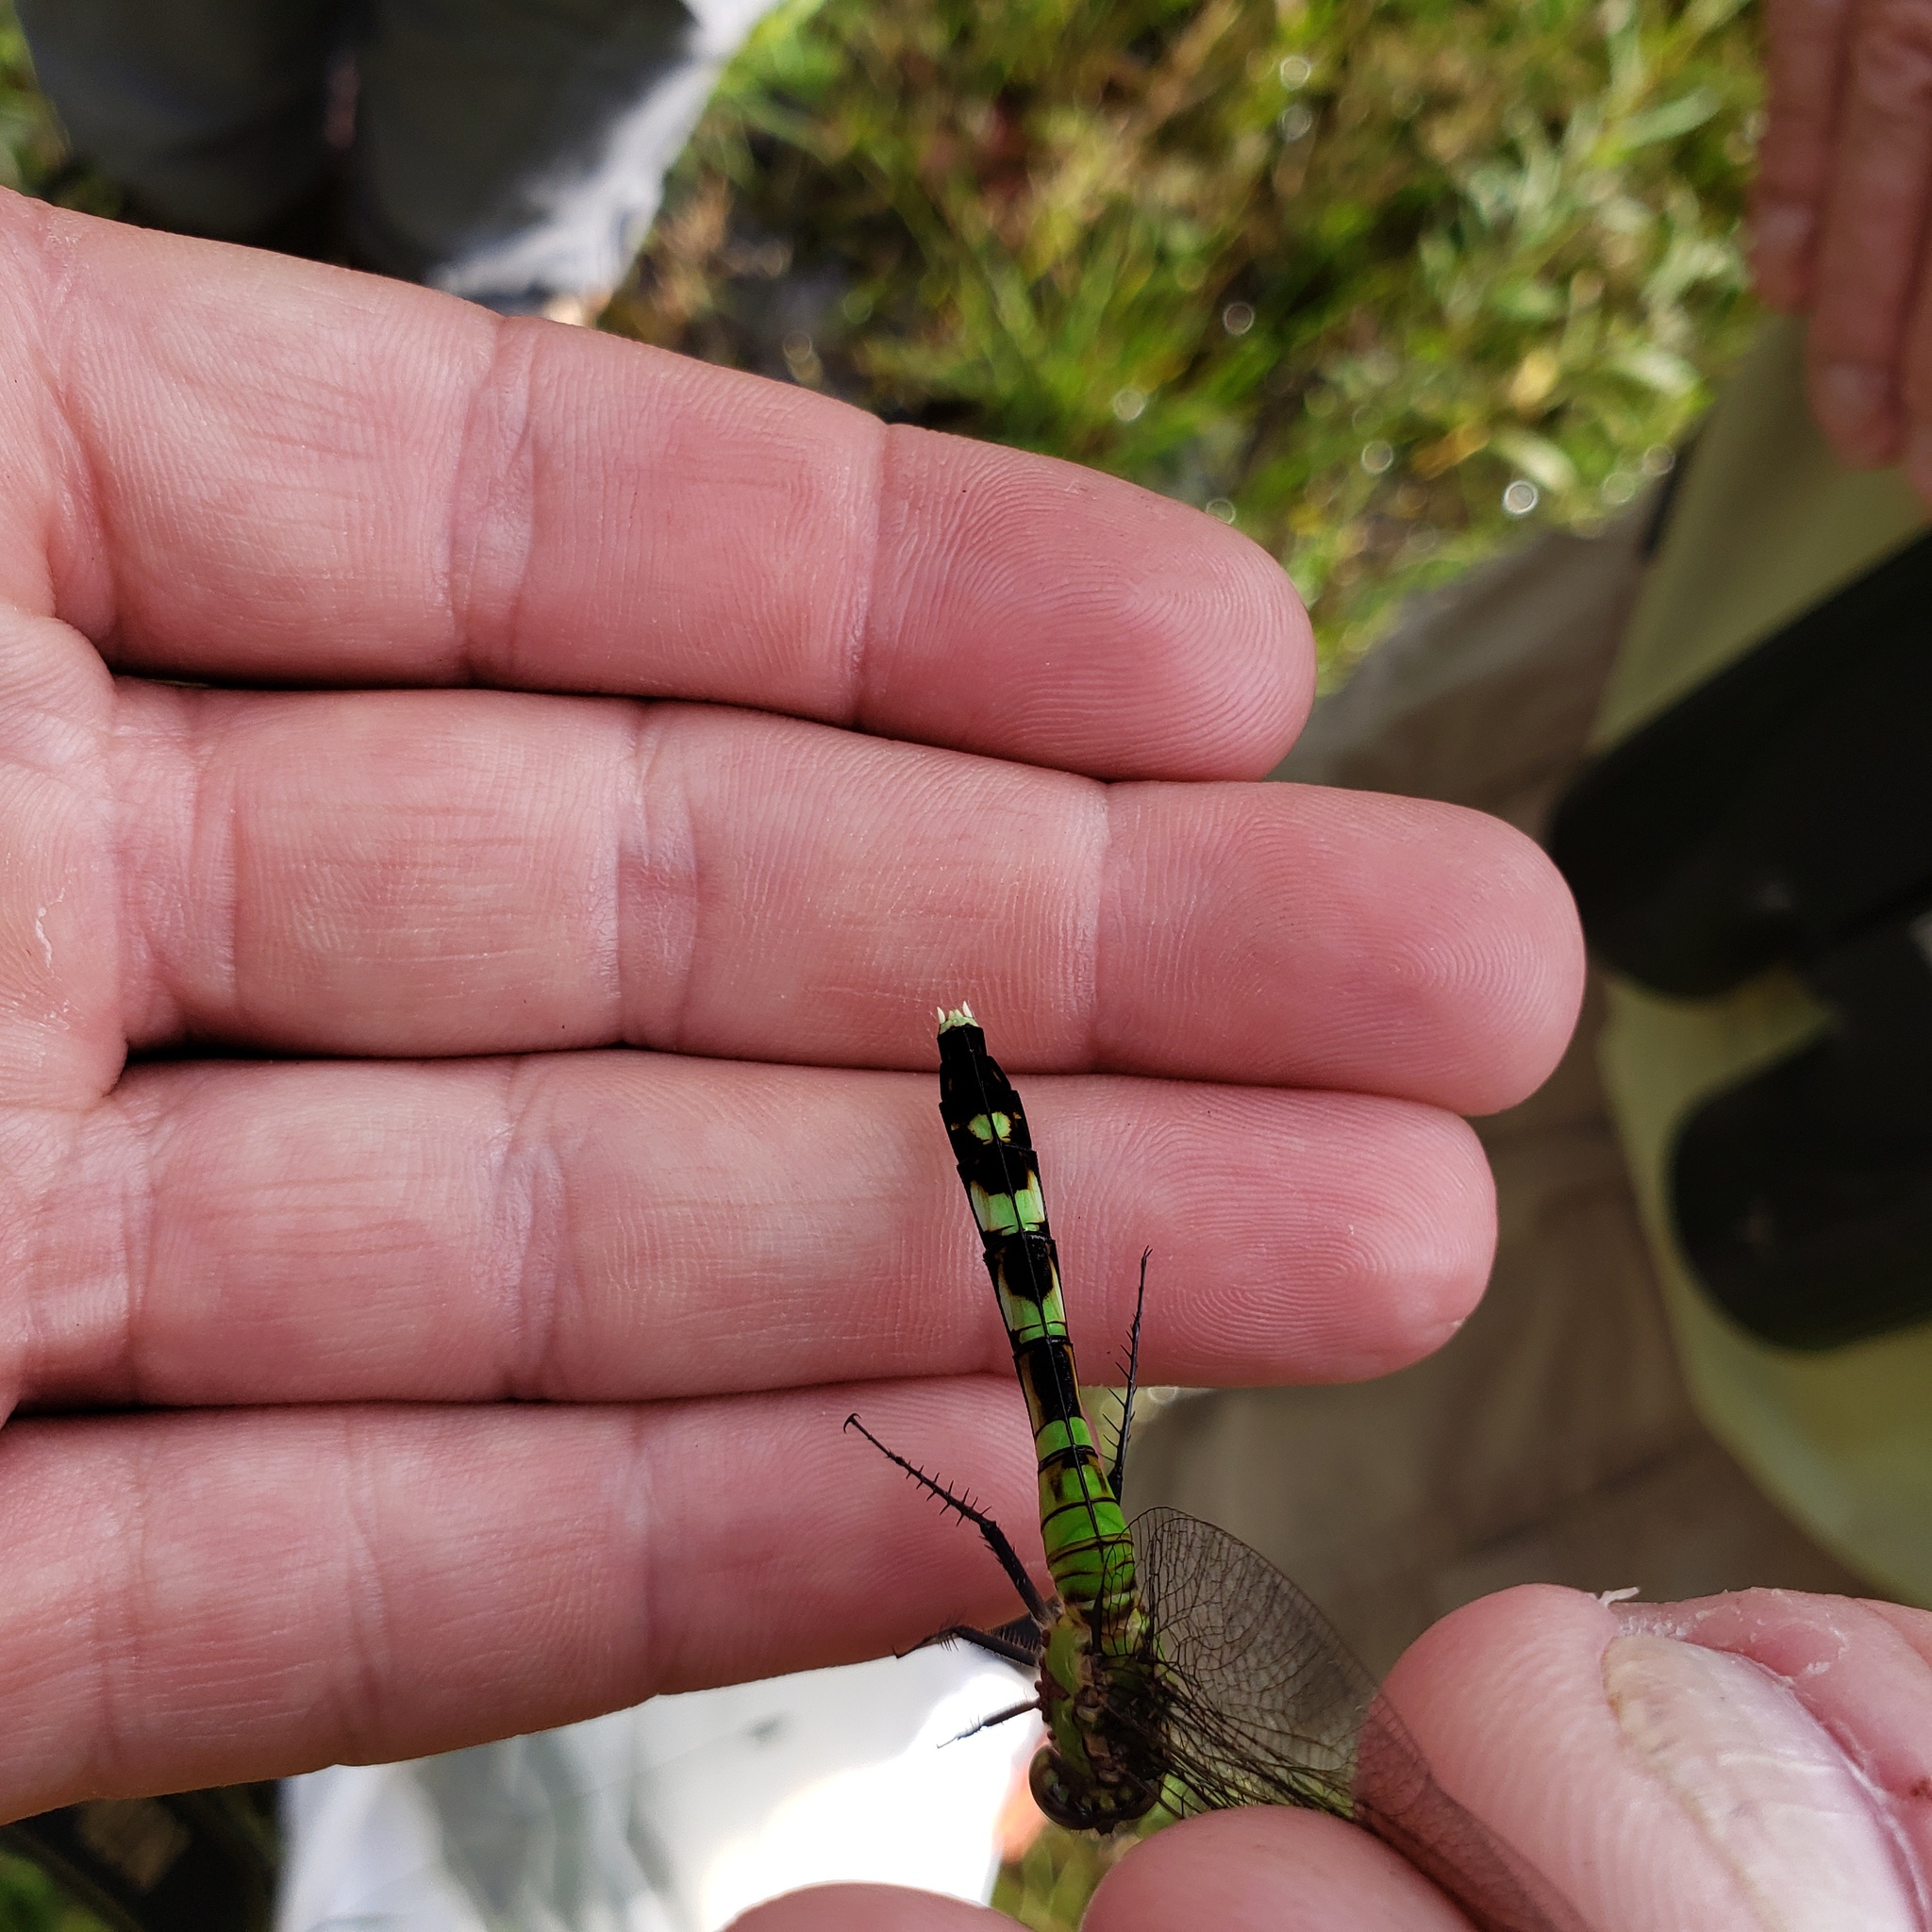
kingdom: Animalia
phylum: Arthropoda
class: Insecta
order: Odonata
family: Libellulidae
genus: Erythemis
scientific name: Erythemis simplicicollis
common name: Eastern pondhawk
